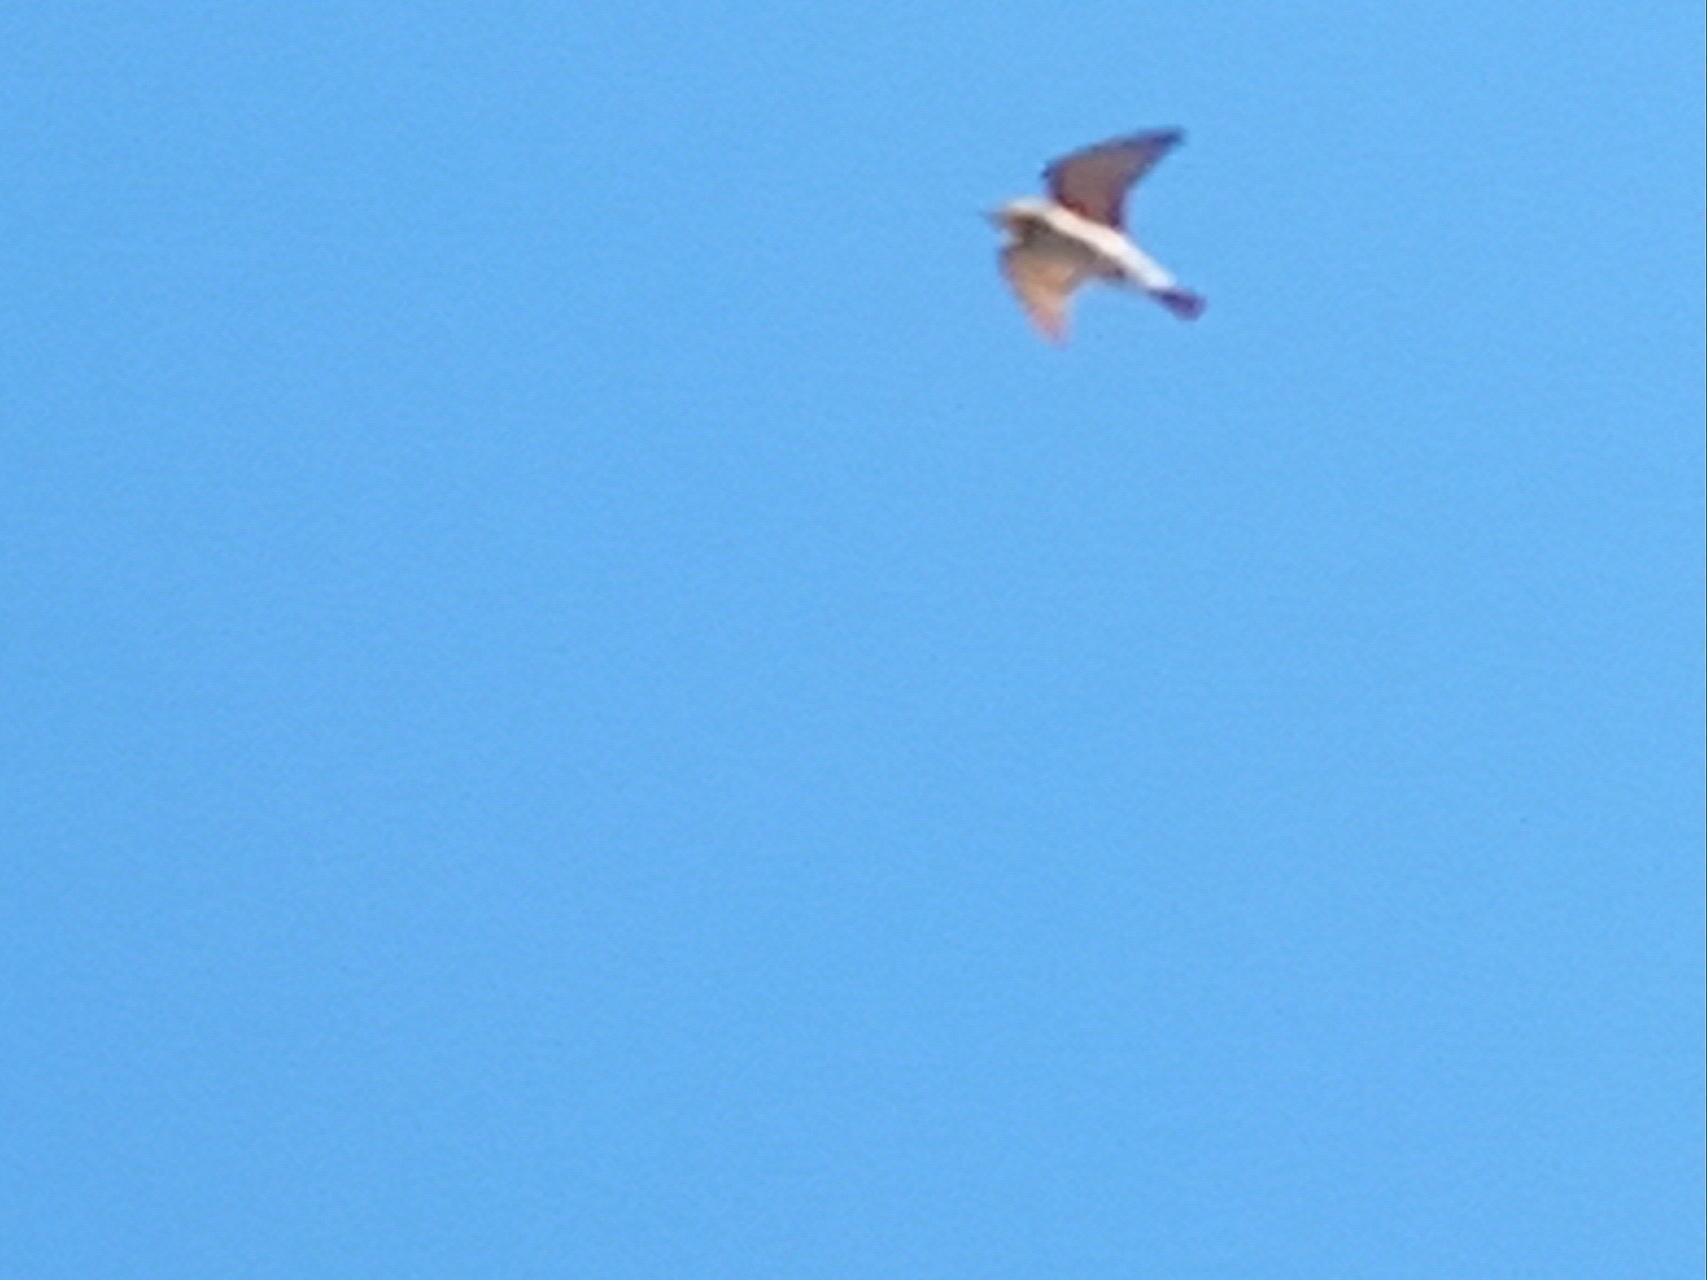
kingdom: Animalia
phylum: Chordata
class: Aves
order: Coraciiformes
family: Meropidae
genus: Merops
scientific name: Merops apiaster
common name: European bee-eater
